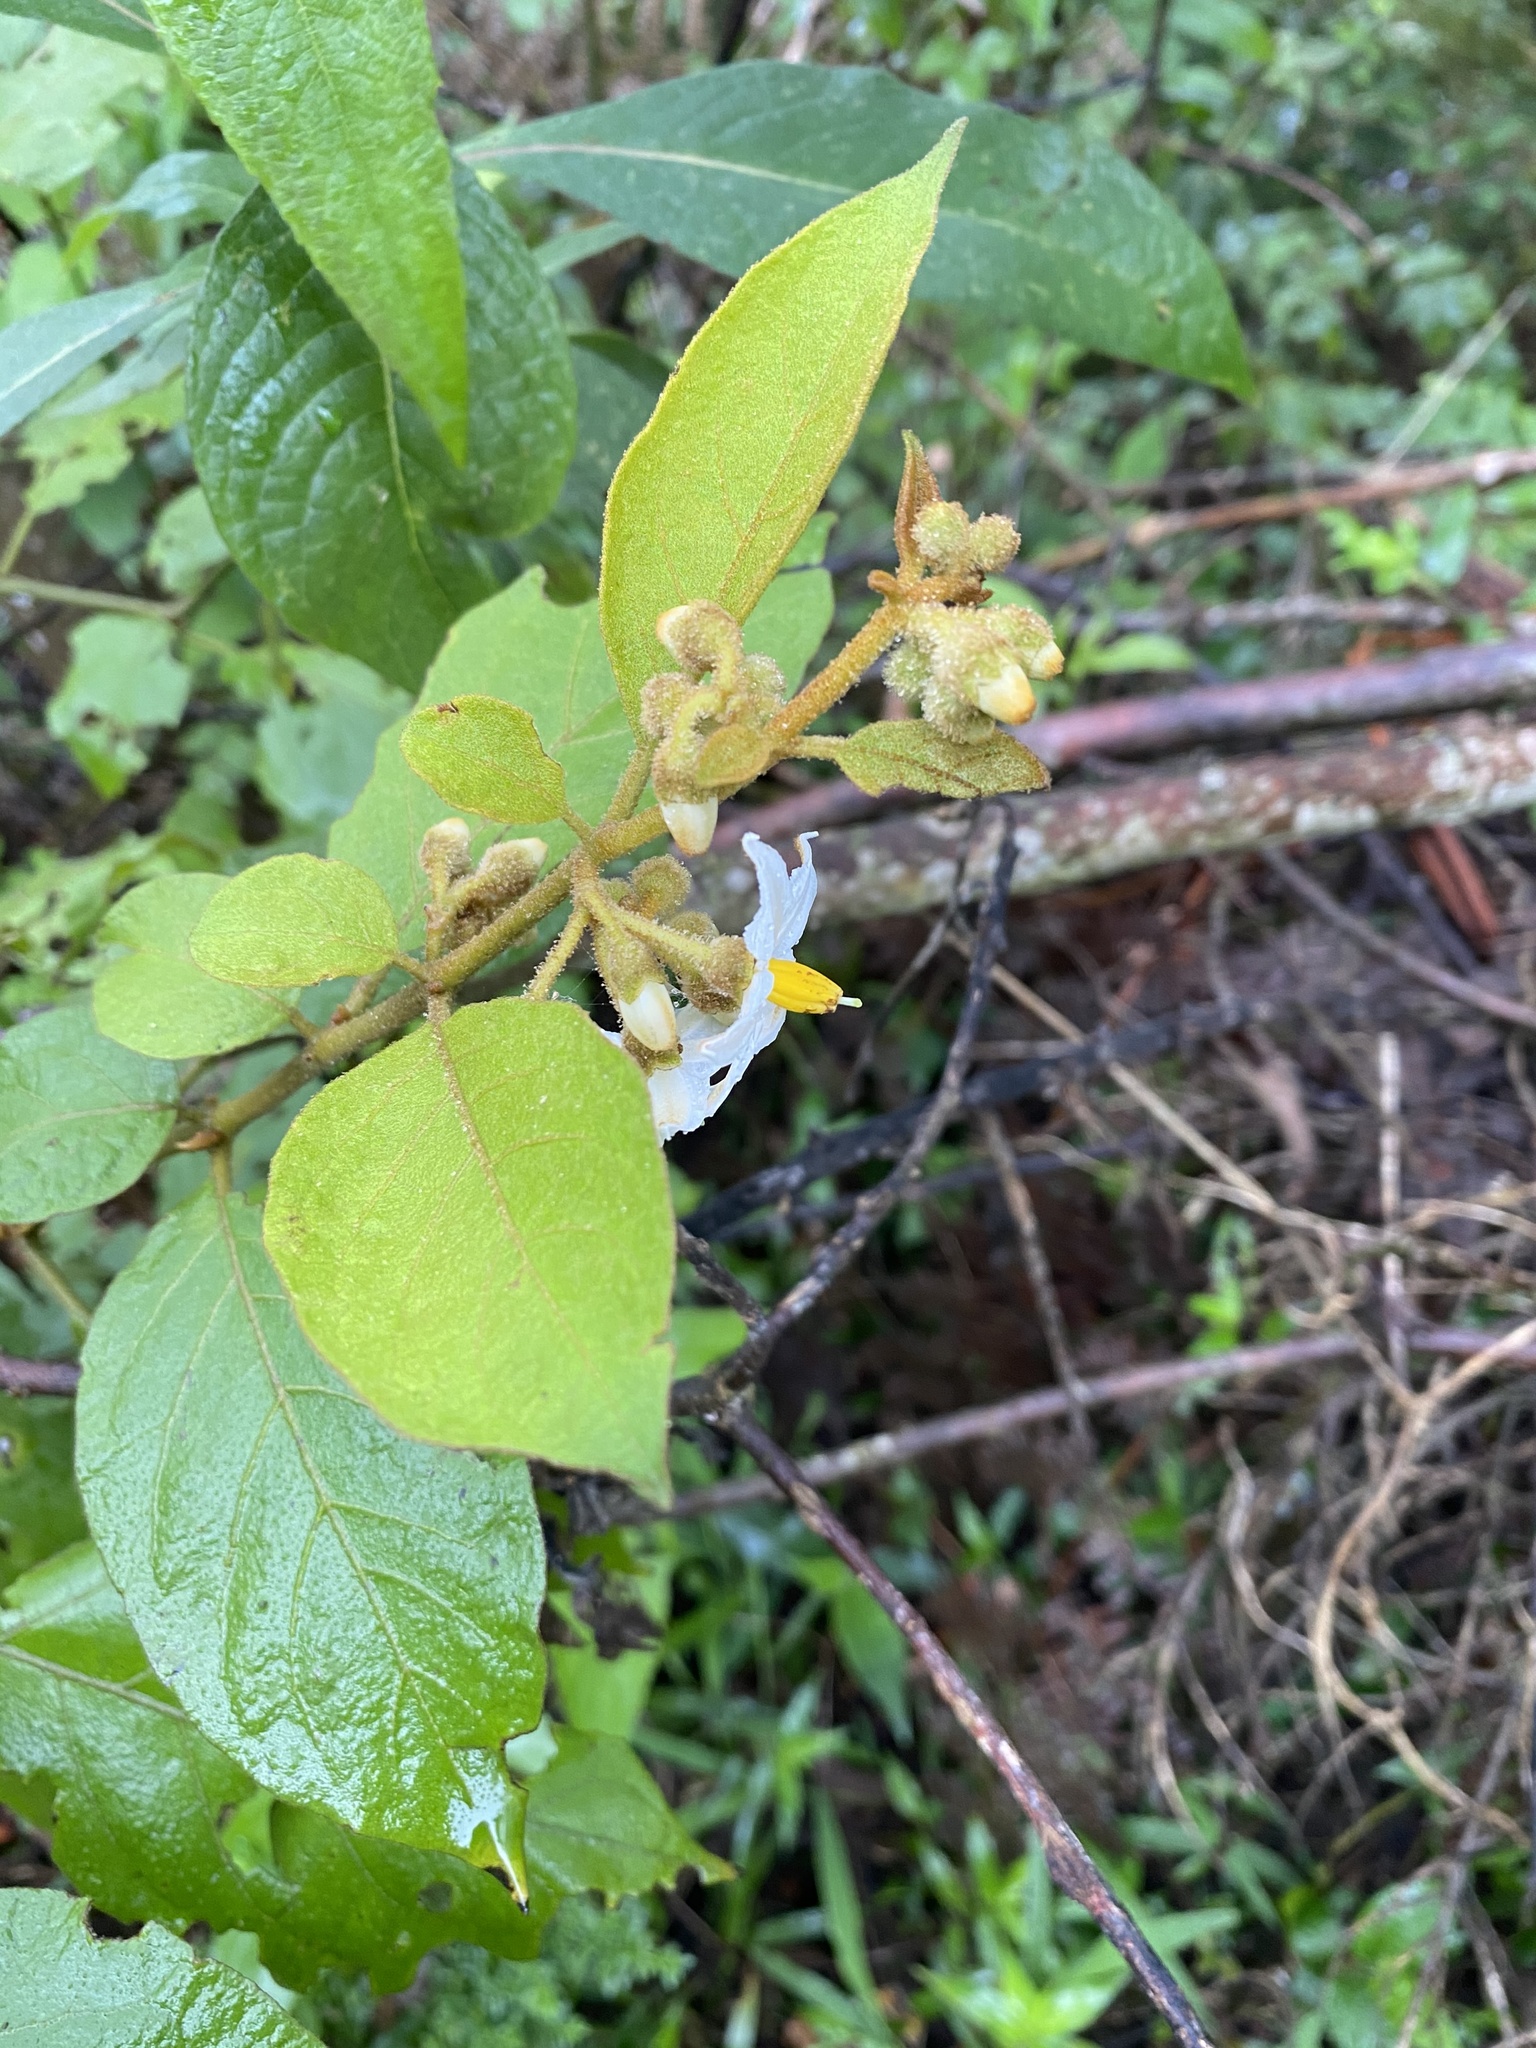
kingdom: Plantae
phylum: Tracheophyta
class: Magnoliopsida
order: Solanales
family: Solanaceae
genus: Solanum
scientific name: Solanum piluliferum
